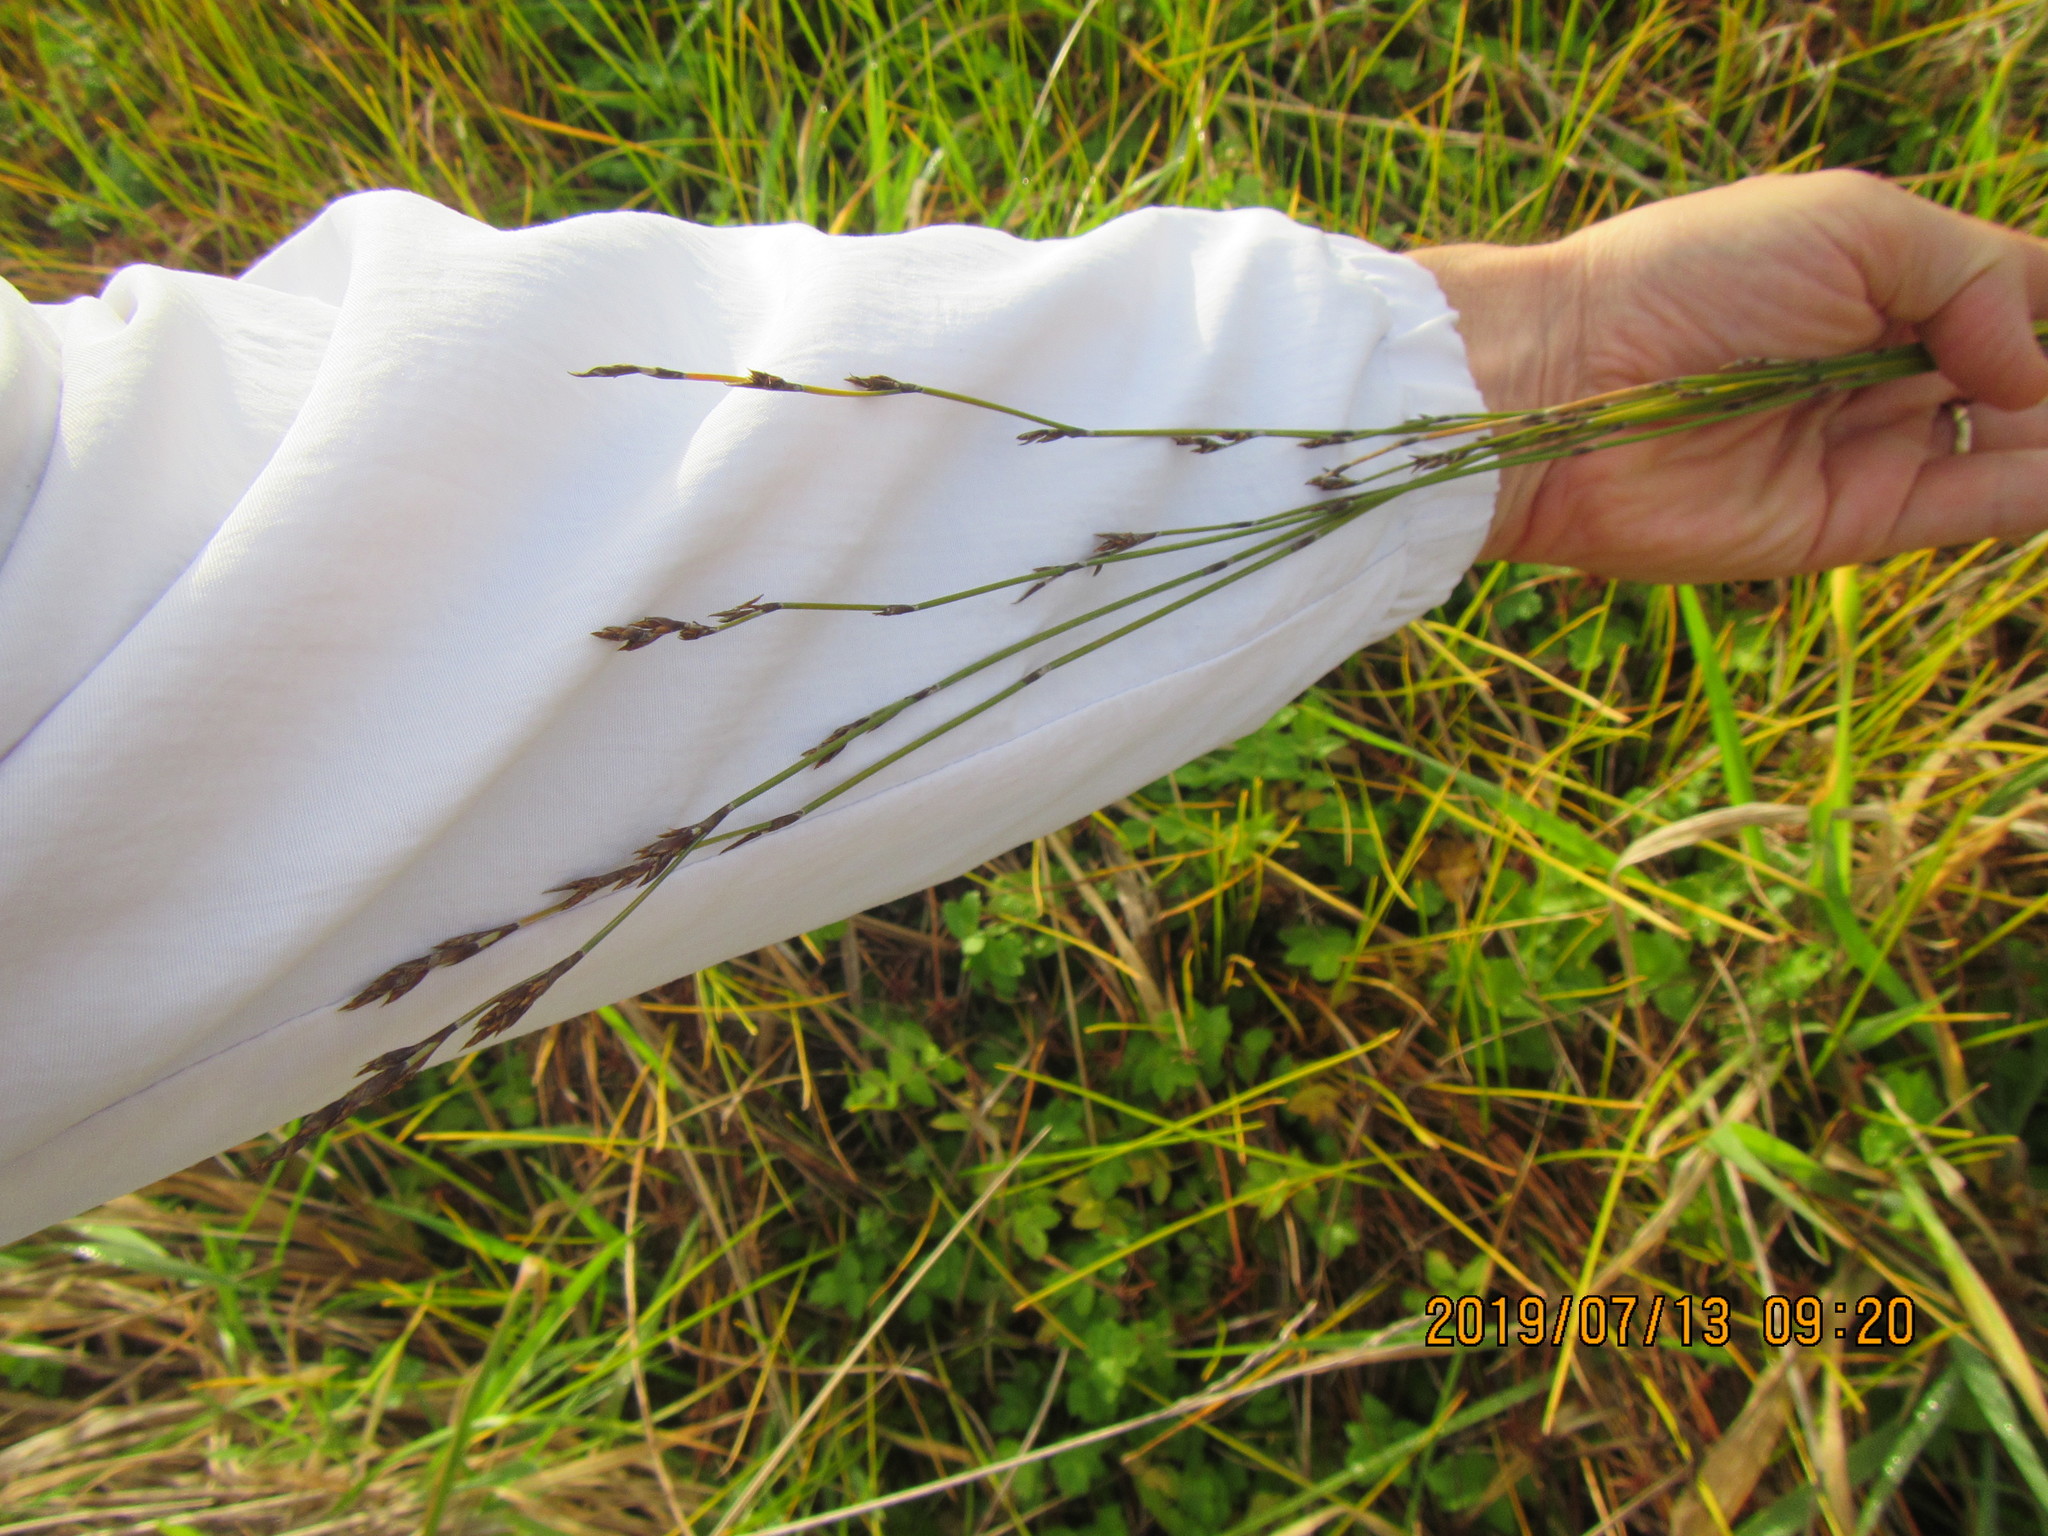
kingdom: Plantae
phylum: Tracheophyta
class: Liliopsida
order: Poales
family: Restionaceae
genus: Apodasmia
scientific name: Apodasmia similis
